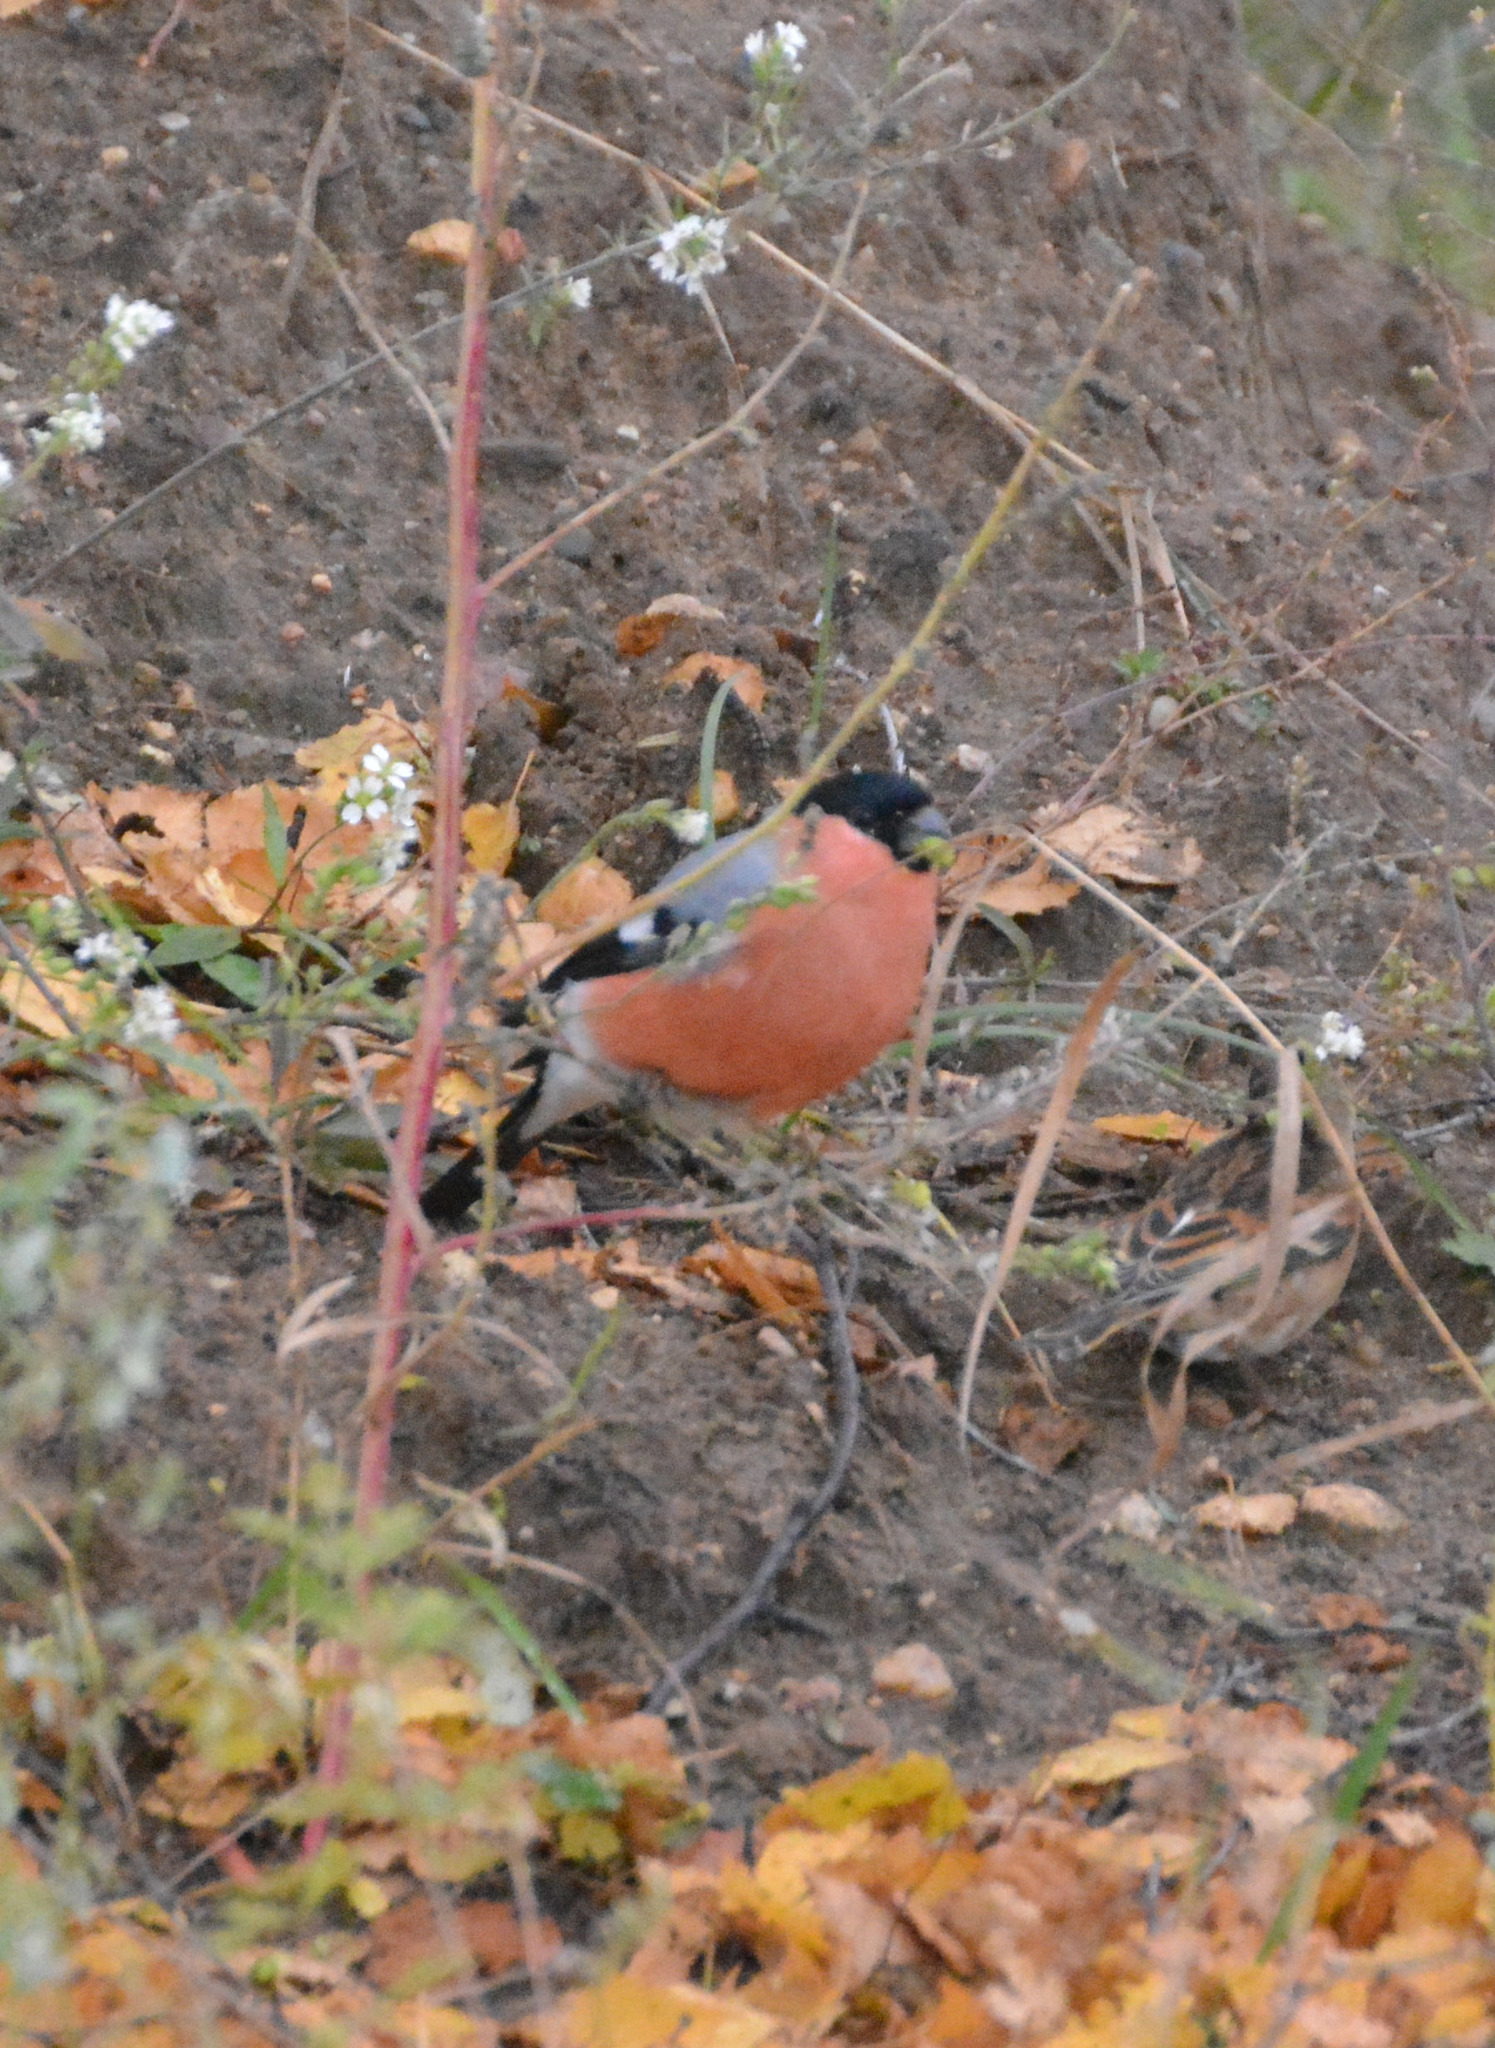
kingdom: Animalia
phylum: Chordata
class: Aves
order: Passeriformes
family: Fringillidae
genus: Pyrrhula
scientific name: Pyrrhula pyrrhula
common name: Eurasian bullfinch
